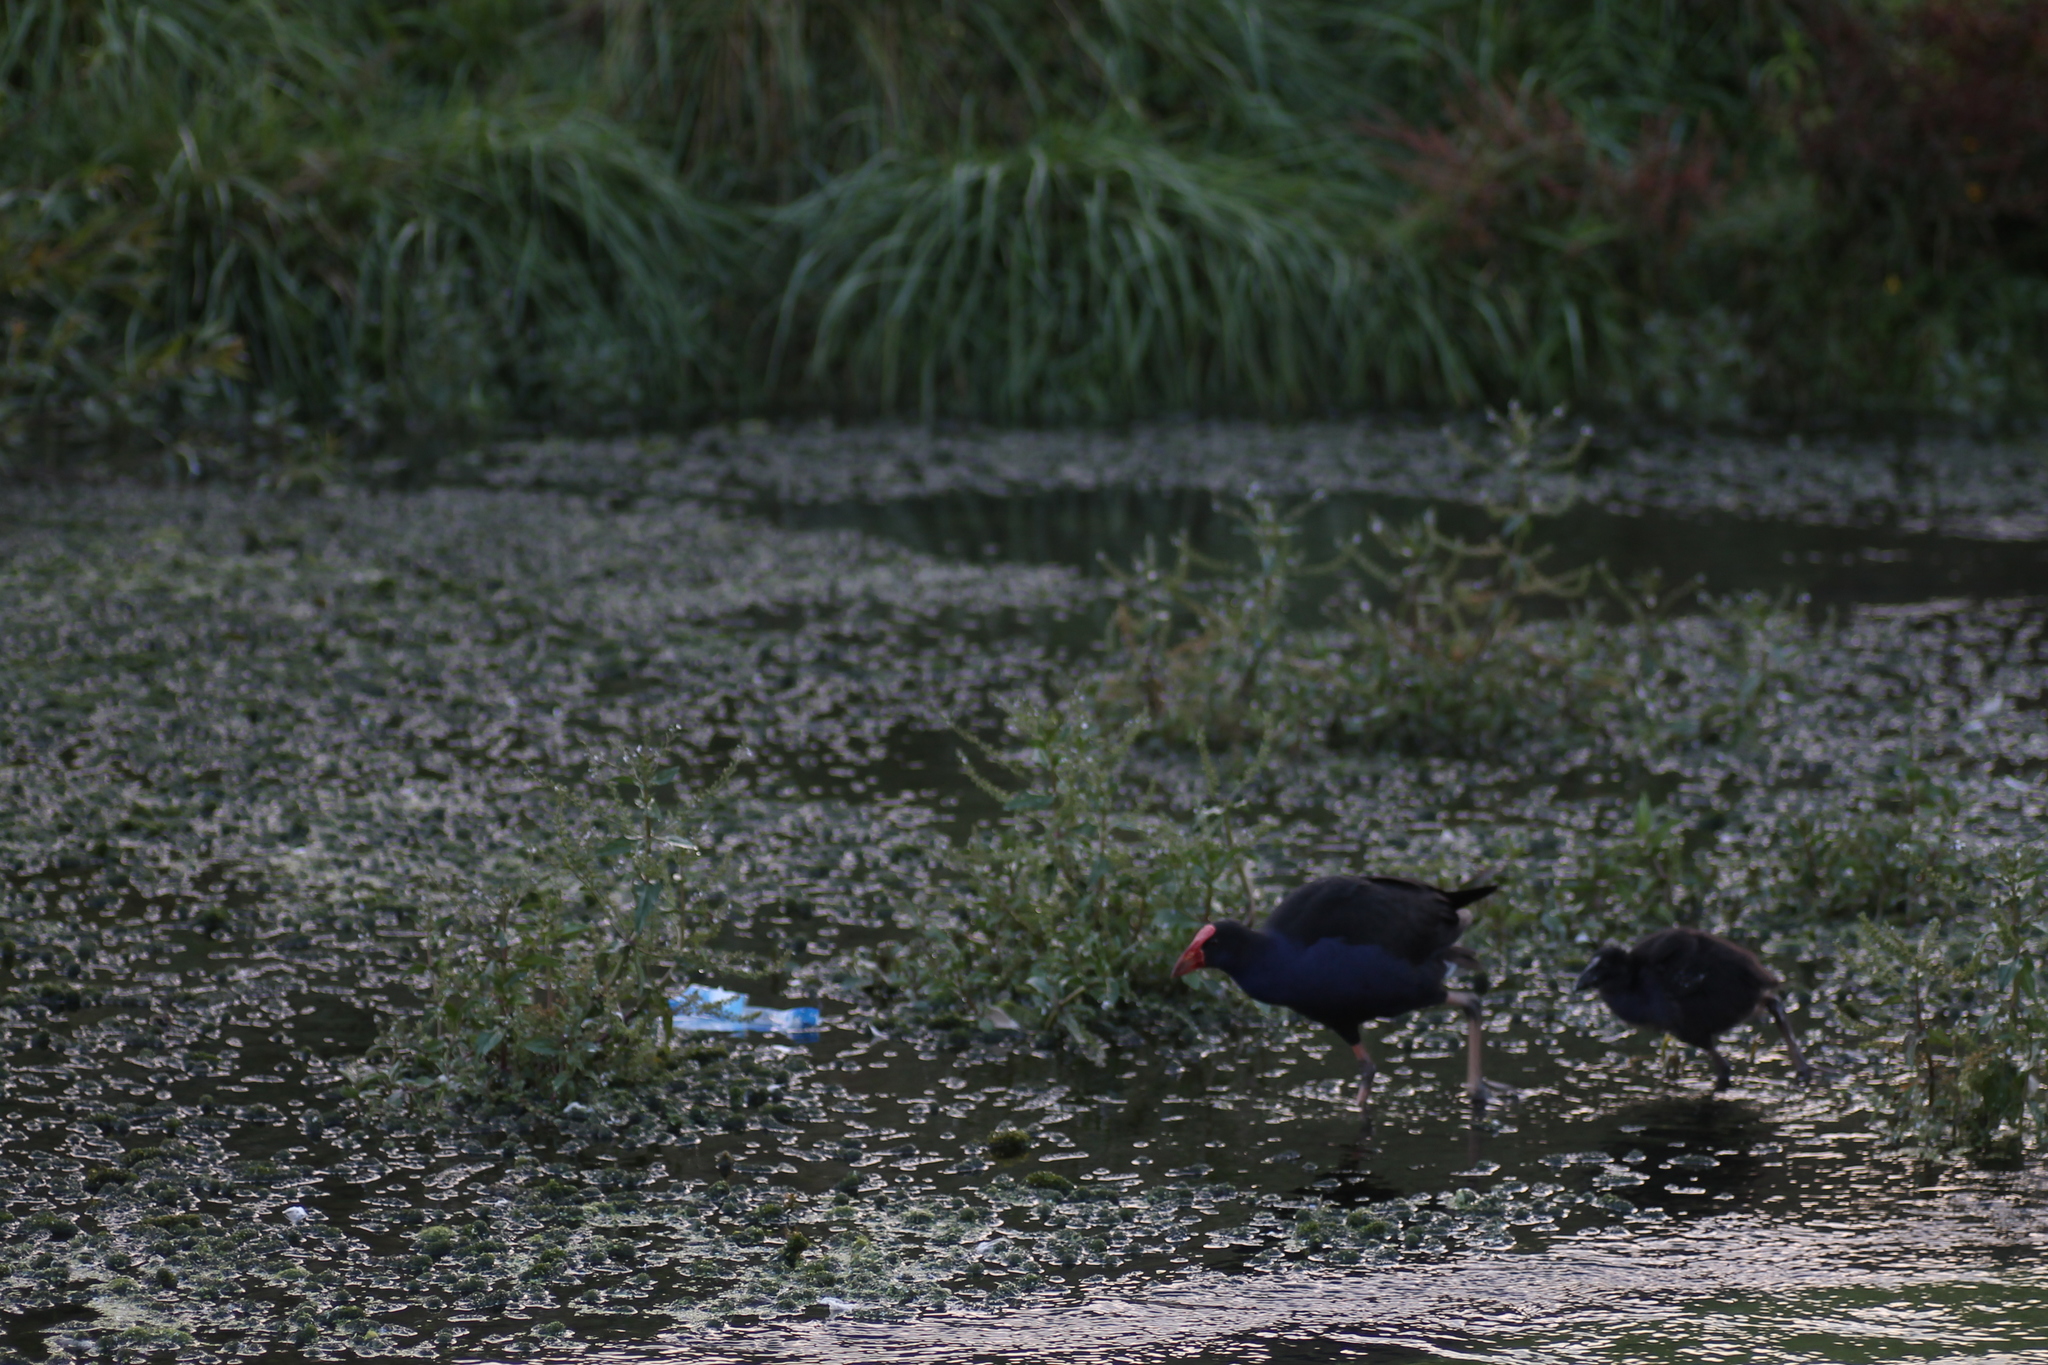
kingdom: Animalia
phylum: Chordata
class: Aves
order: Gruiformes
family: Rallidae
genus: Porphyrio
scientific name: Porphyrio melanotus
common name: Australasian swamphen
